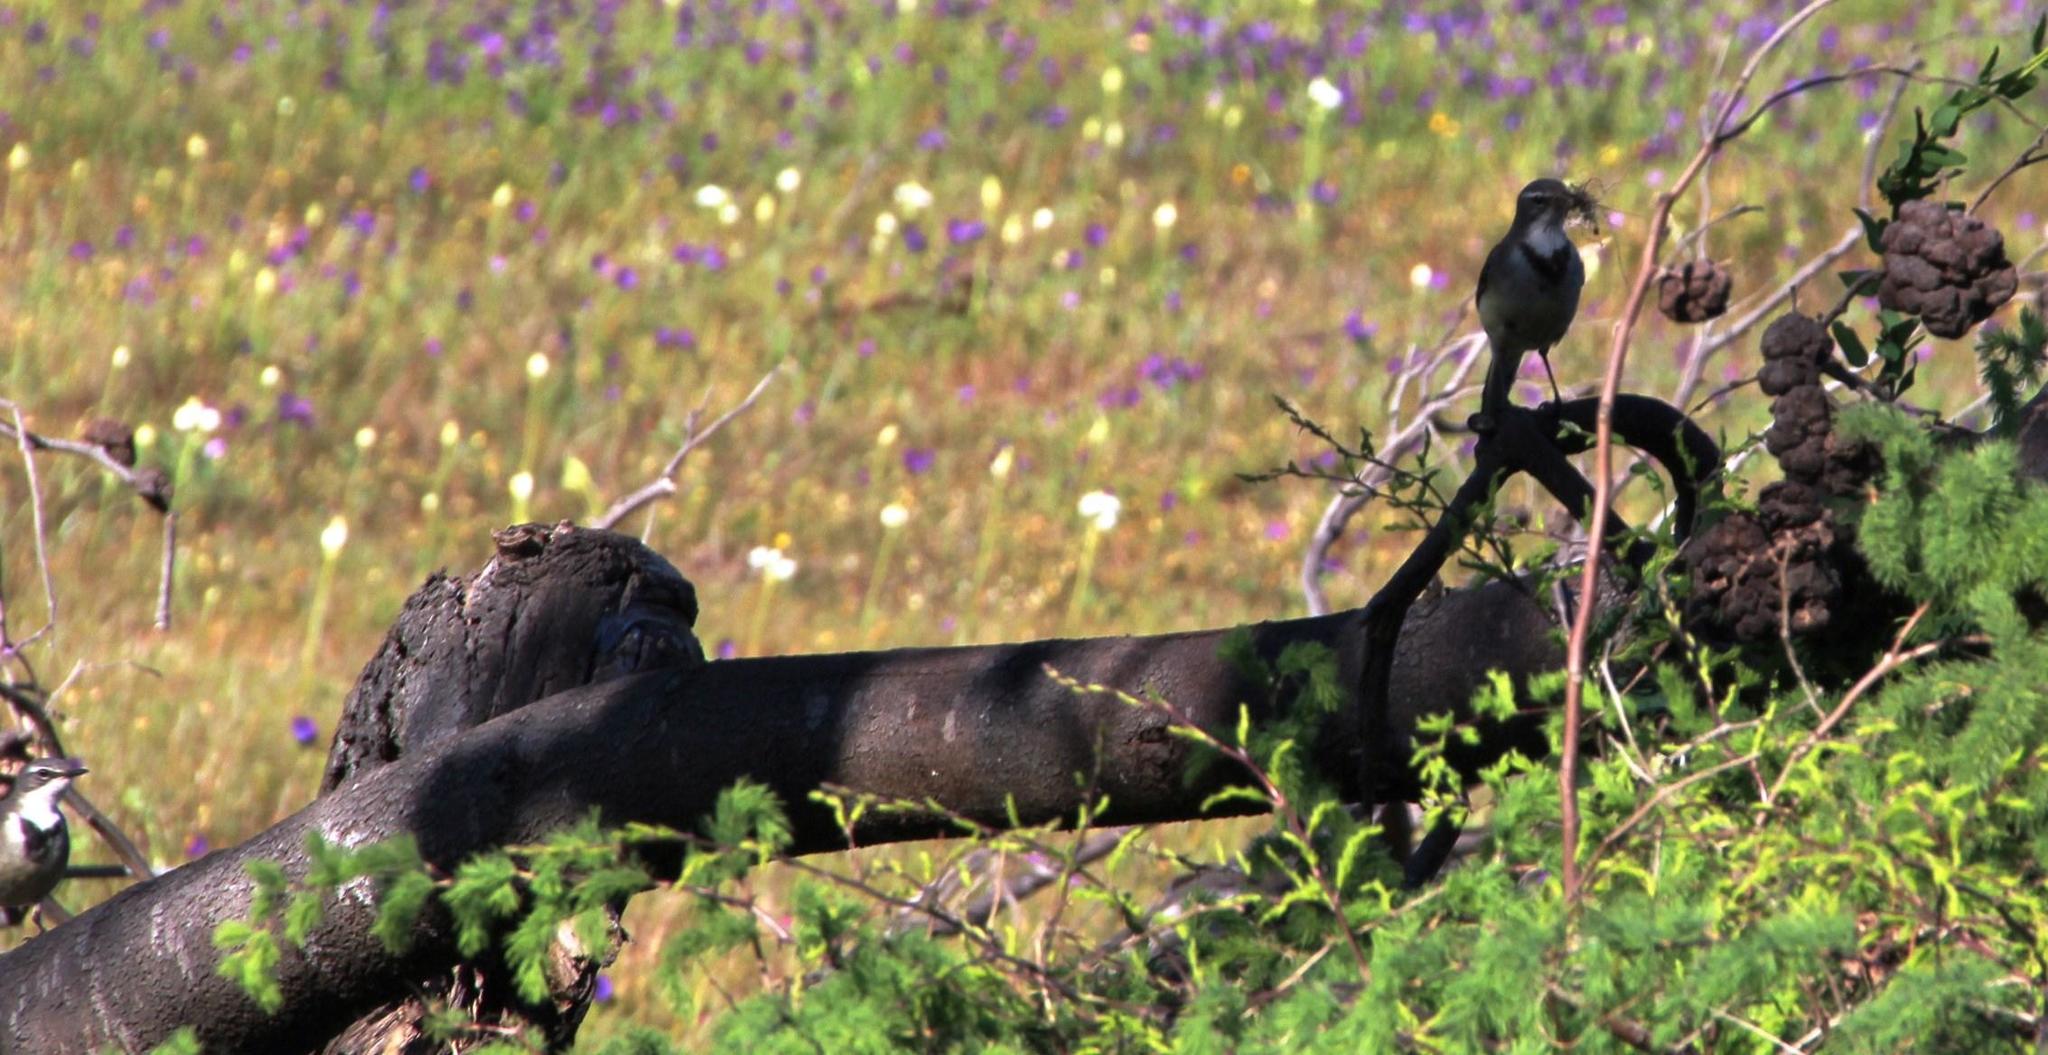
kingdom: Animalia
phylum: Chordata
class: Aves
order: Passeriformes
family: Motacillidae
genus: Motacilla
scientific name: Motacilla capensis
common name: Cape wagtail
